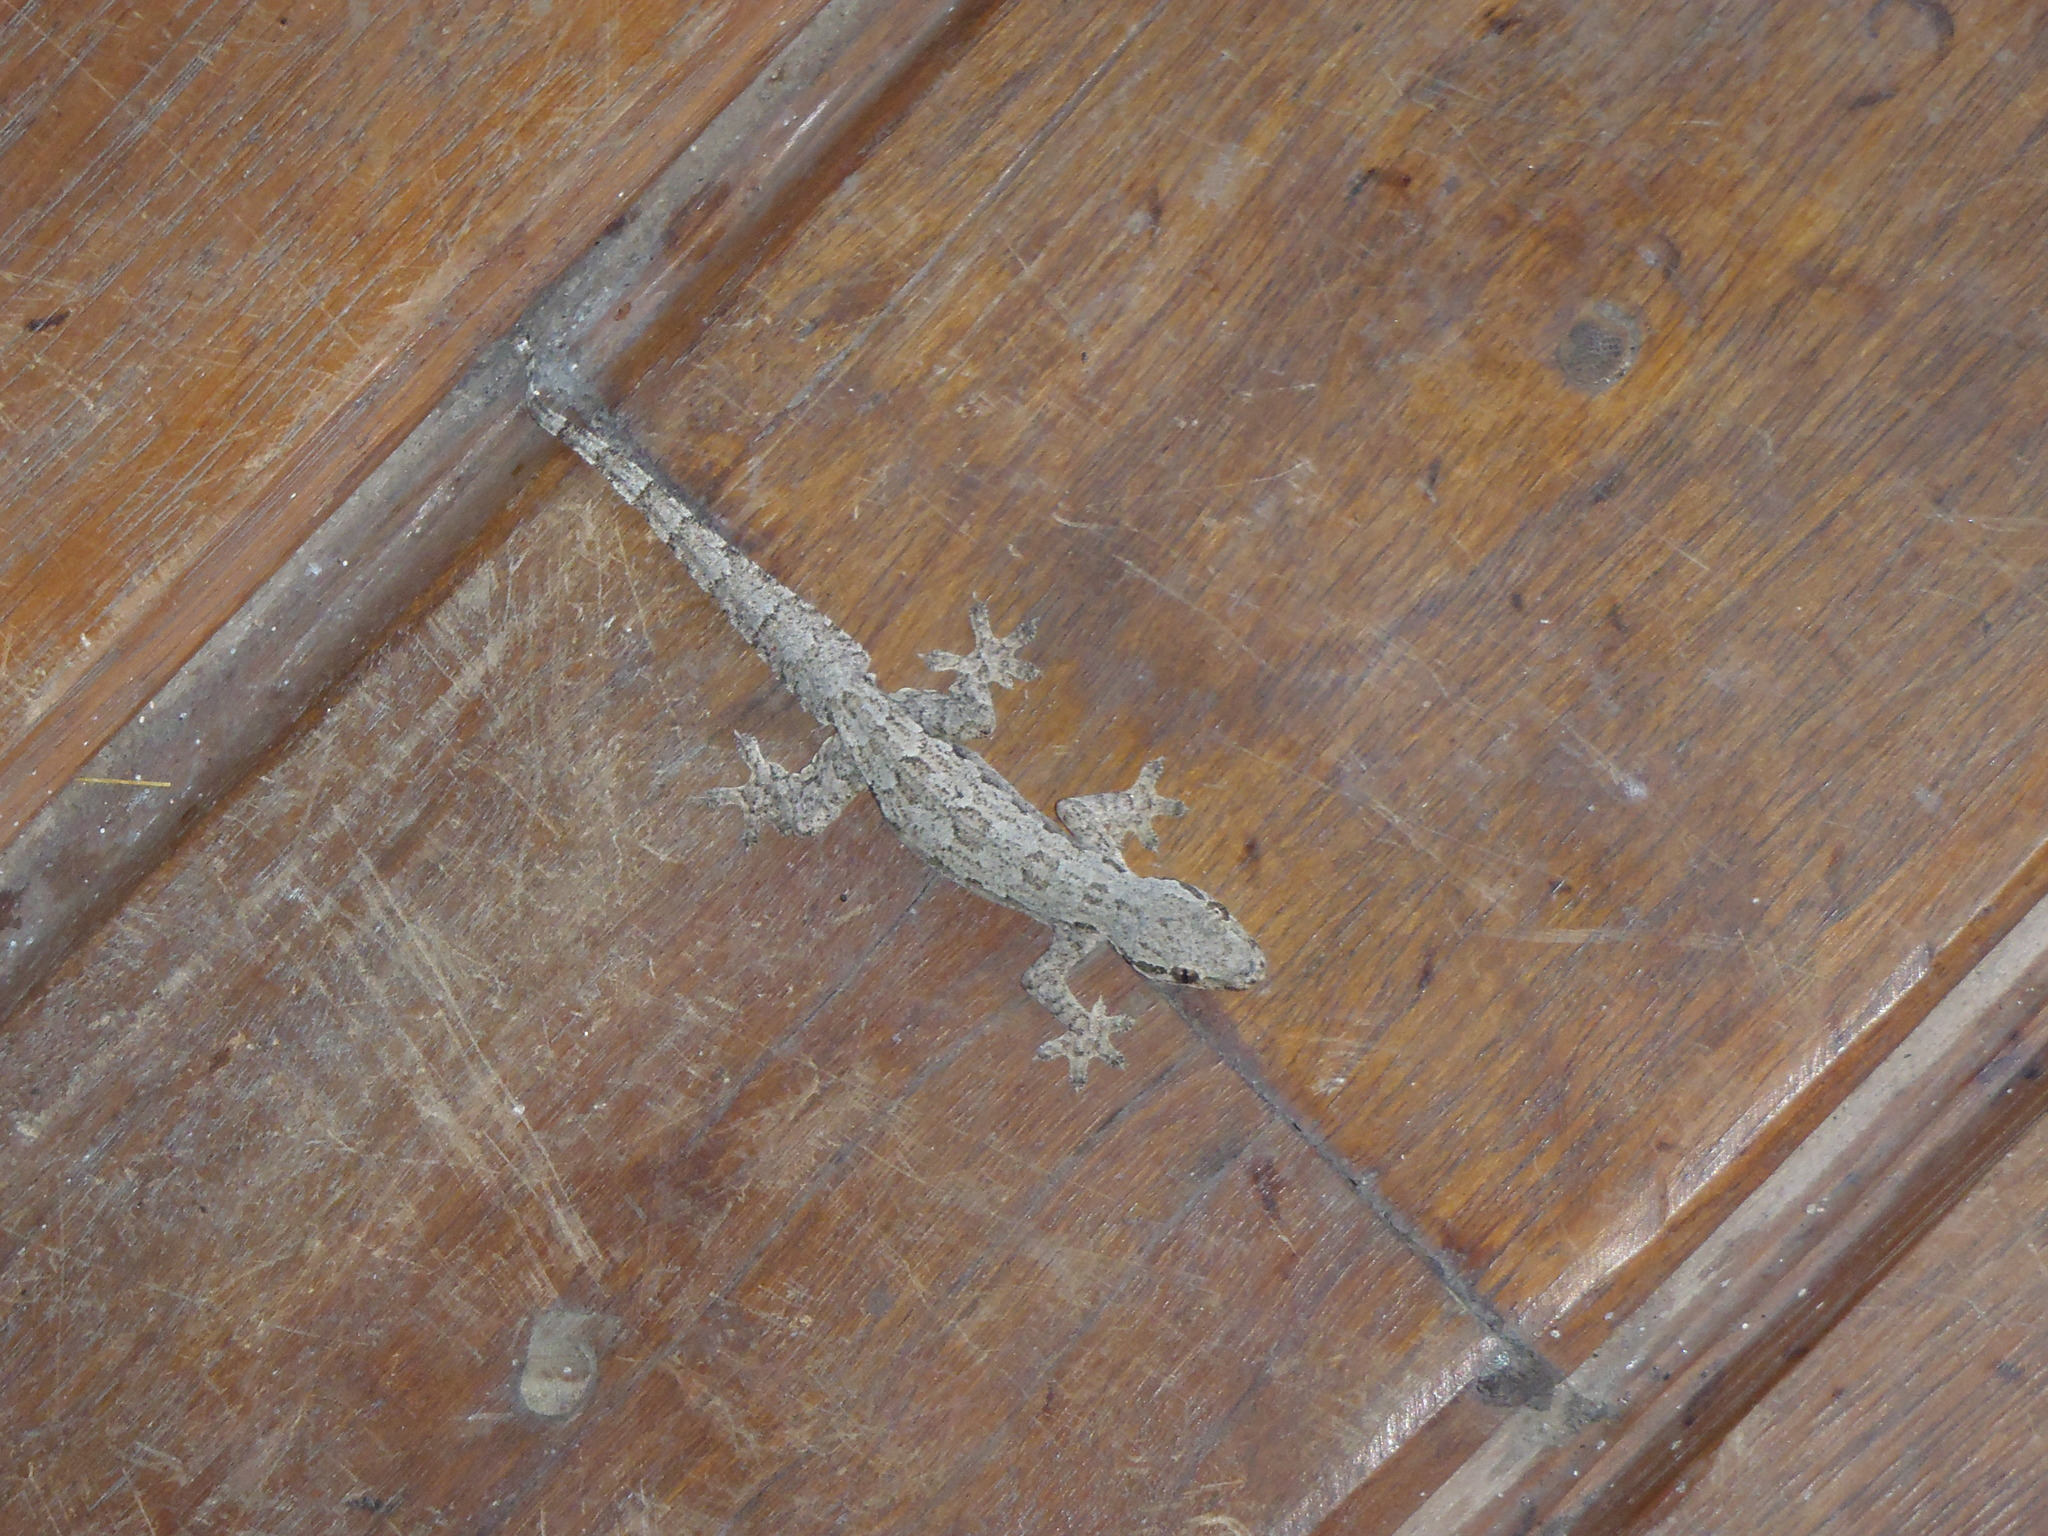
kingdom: Animalia
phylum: Chordata
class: Squamata
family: Gekkonidae
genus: Hemidactylus
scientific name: Hemidactylus platyurus
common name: Flat-tailed house gecko
